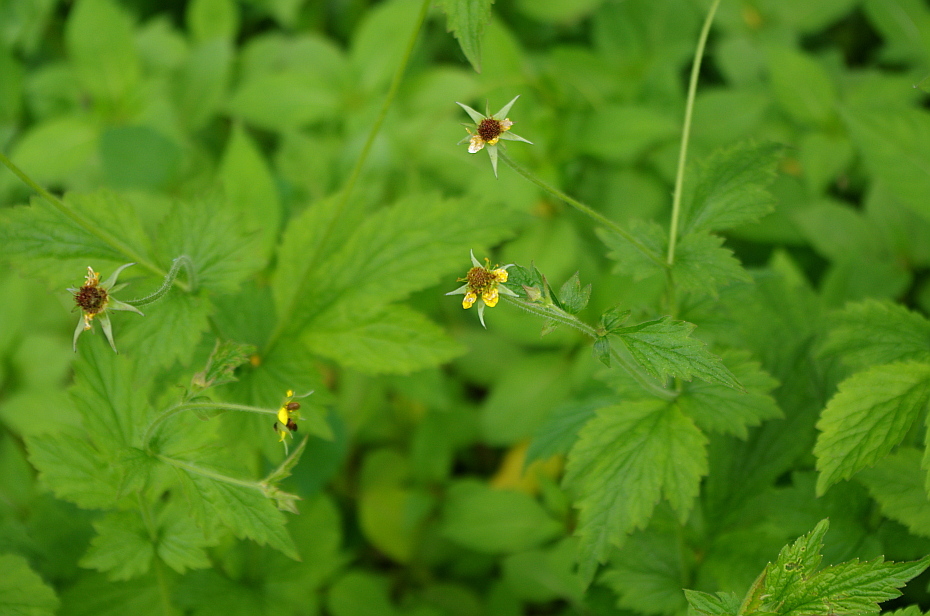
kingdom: Plantae
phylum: Tracheophyta
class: Magnoliopsida
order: Rosales
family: Rosaceae
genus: Geum
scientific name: Geum urbanum
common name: Wood avens
